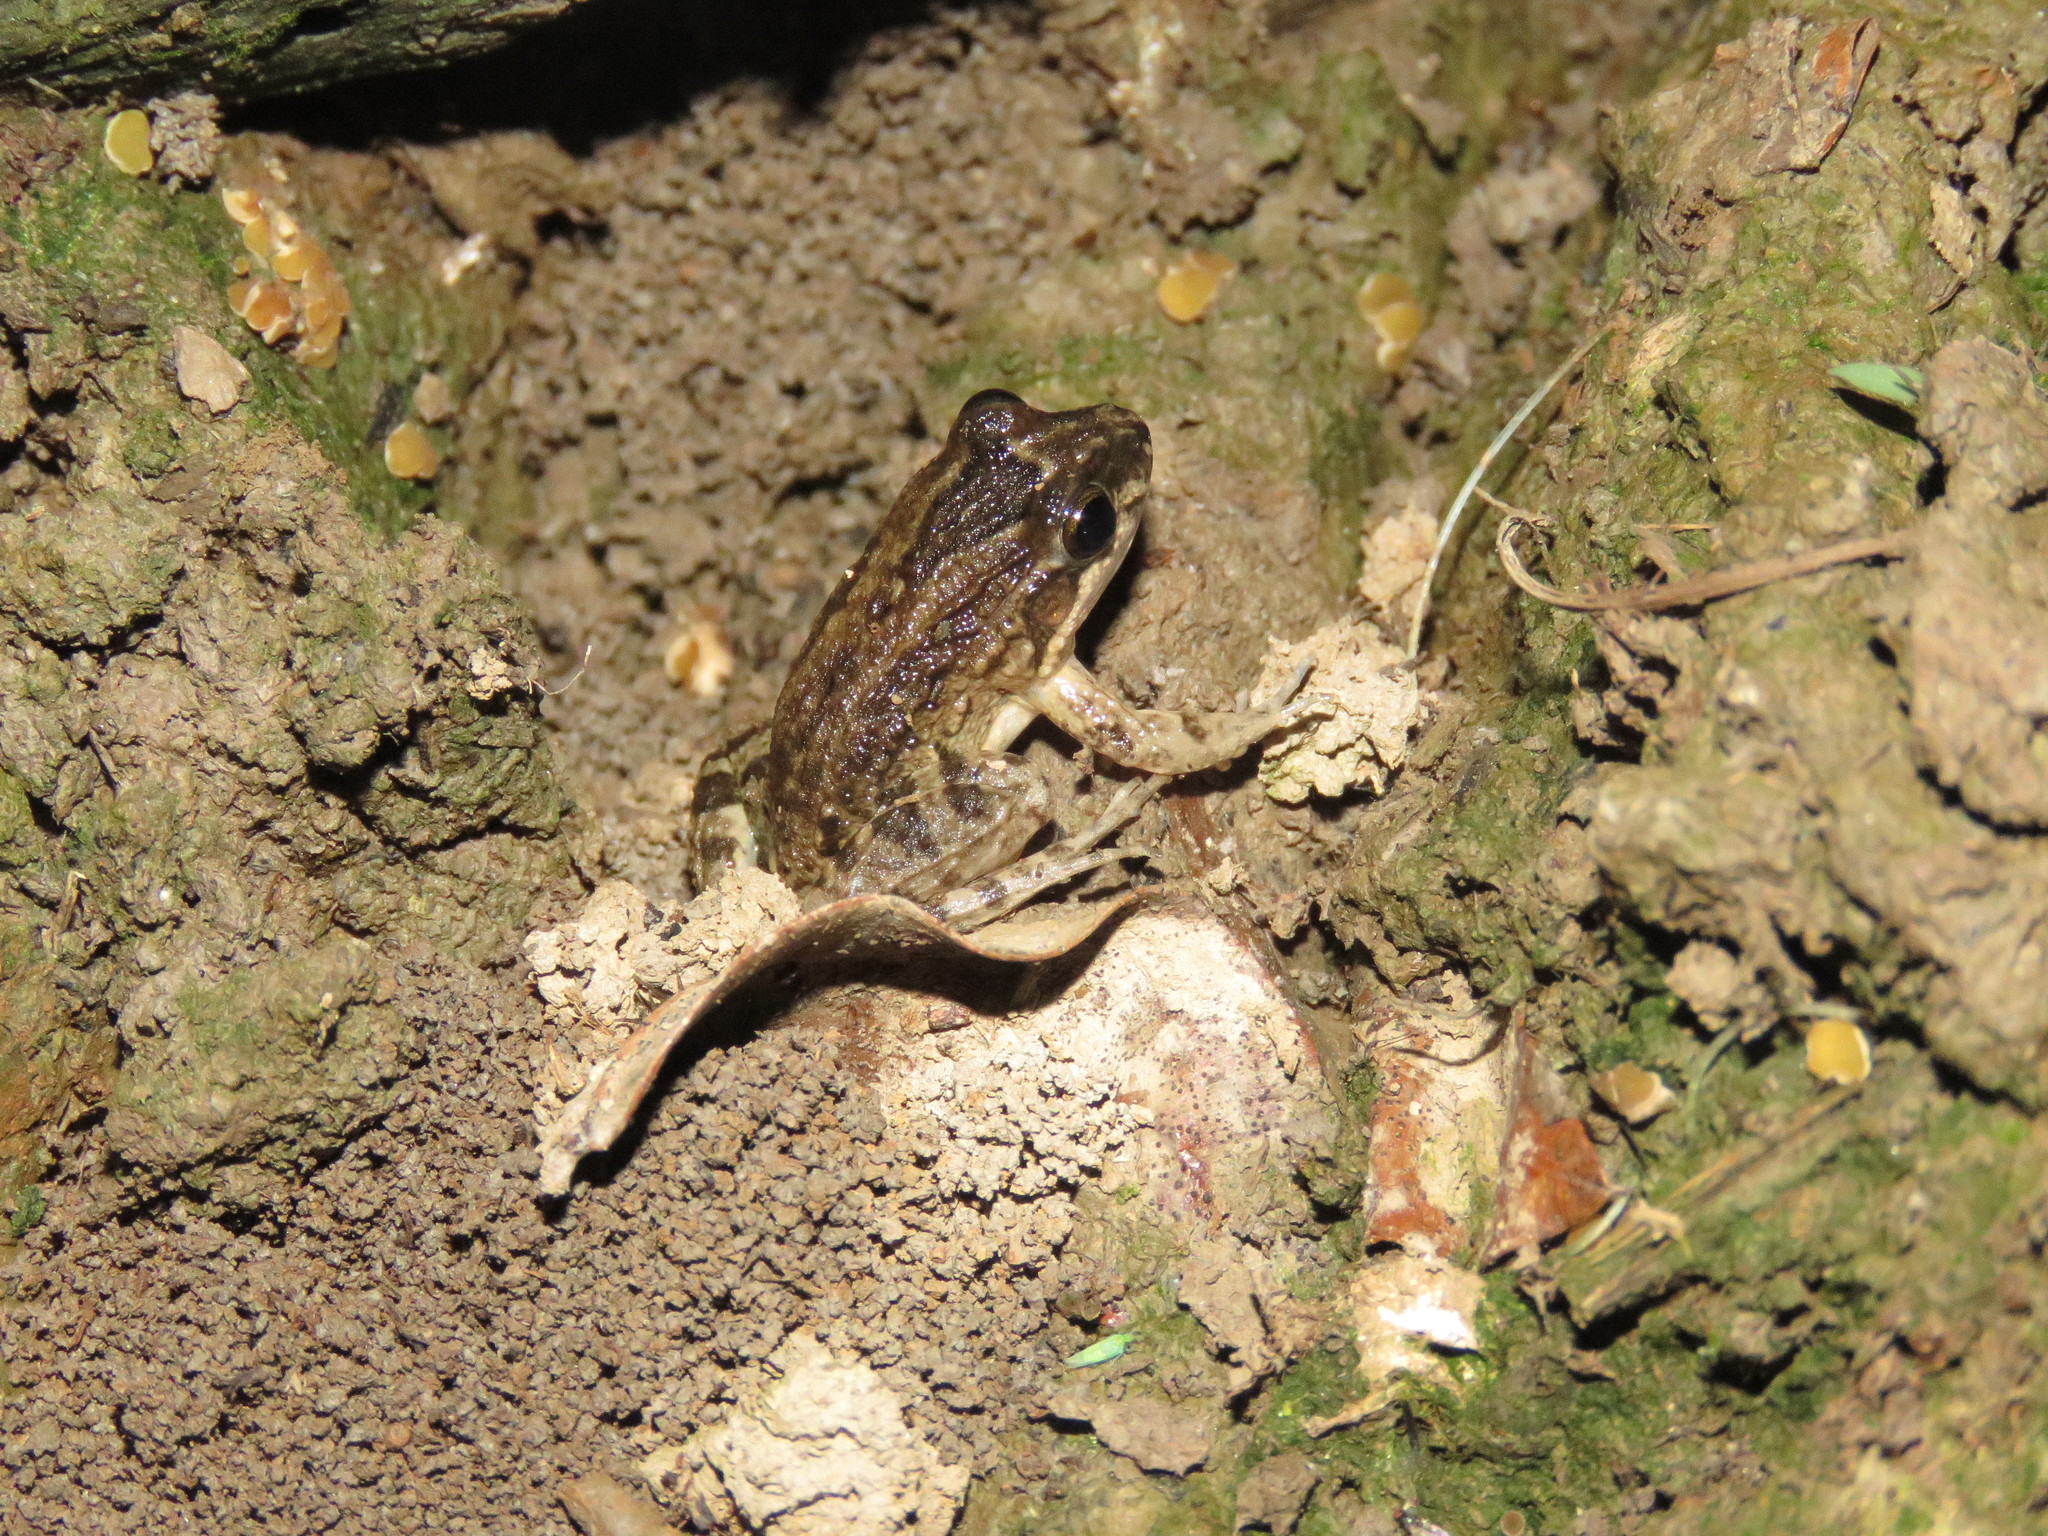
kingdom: Animalia
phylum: Chordata
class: Amphibia
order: Anura
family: Leptodactylidae
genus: Leptodactylus
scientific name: Leptodactylus petersii
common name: Peters' thin-toed frog
